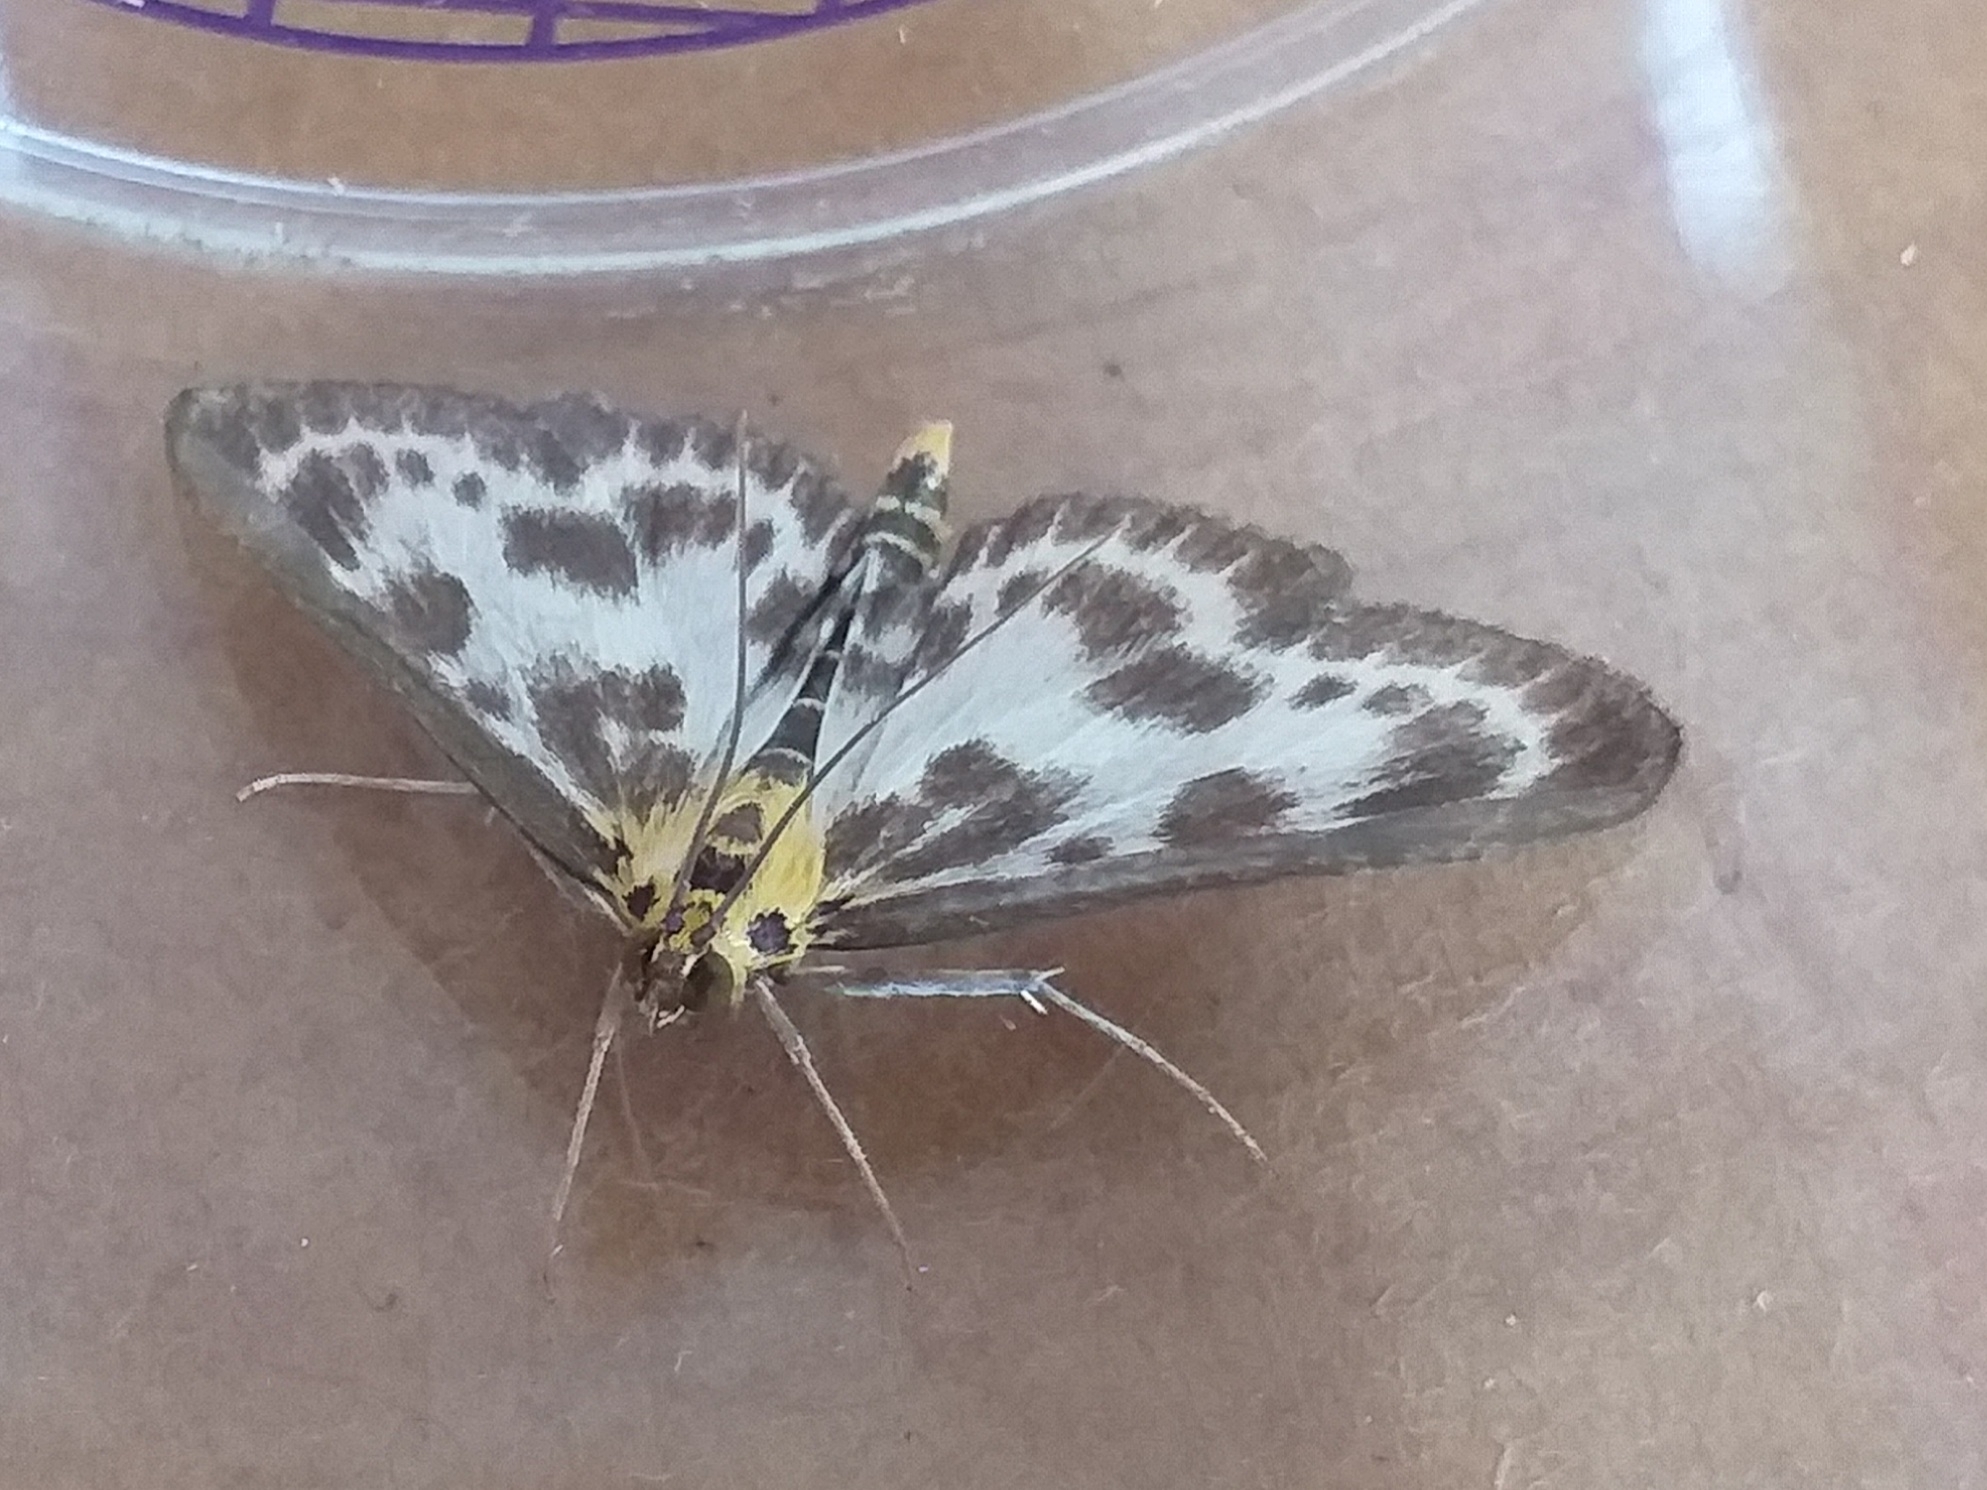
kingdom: Animalia
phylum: Arthropoda
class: Insecta
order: Lepidoptera
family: Crambidae
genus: Anania
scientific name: Anania hortulata
